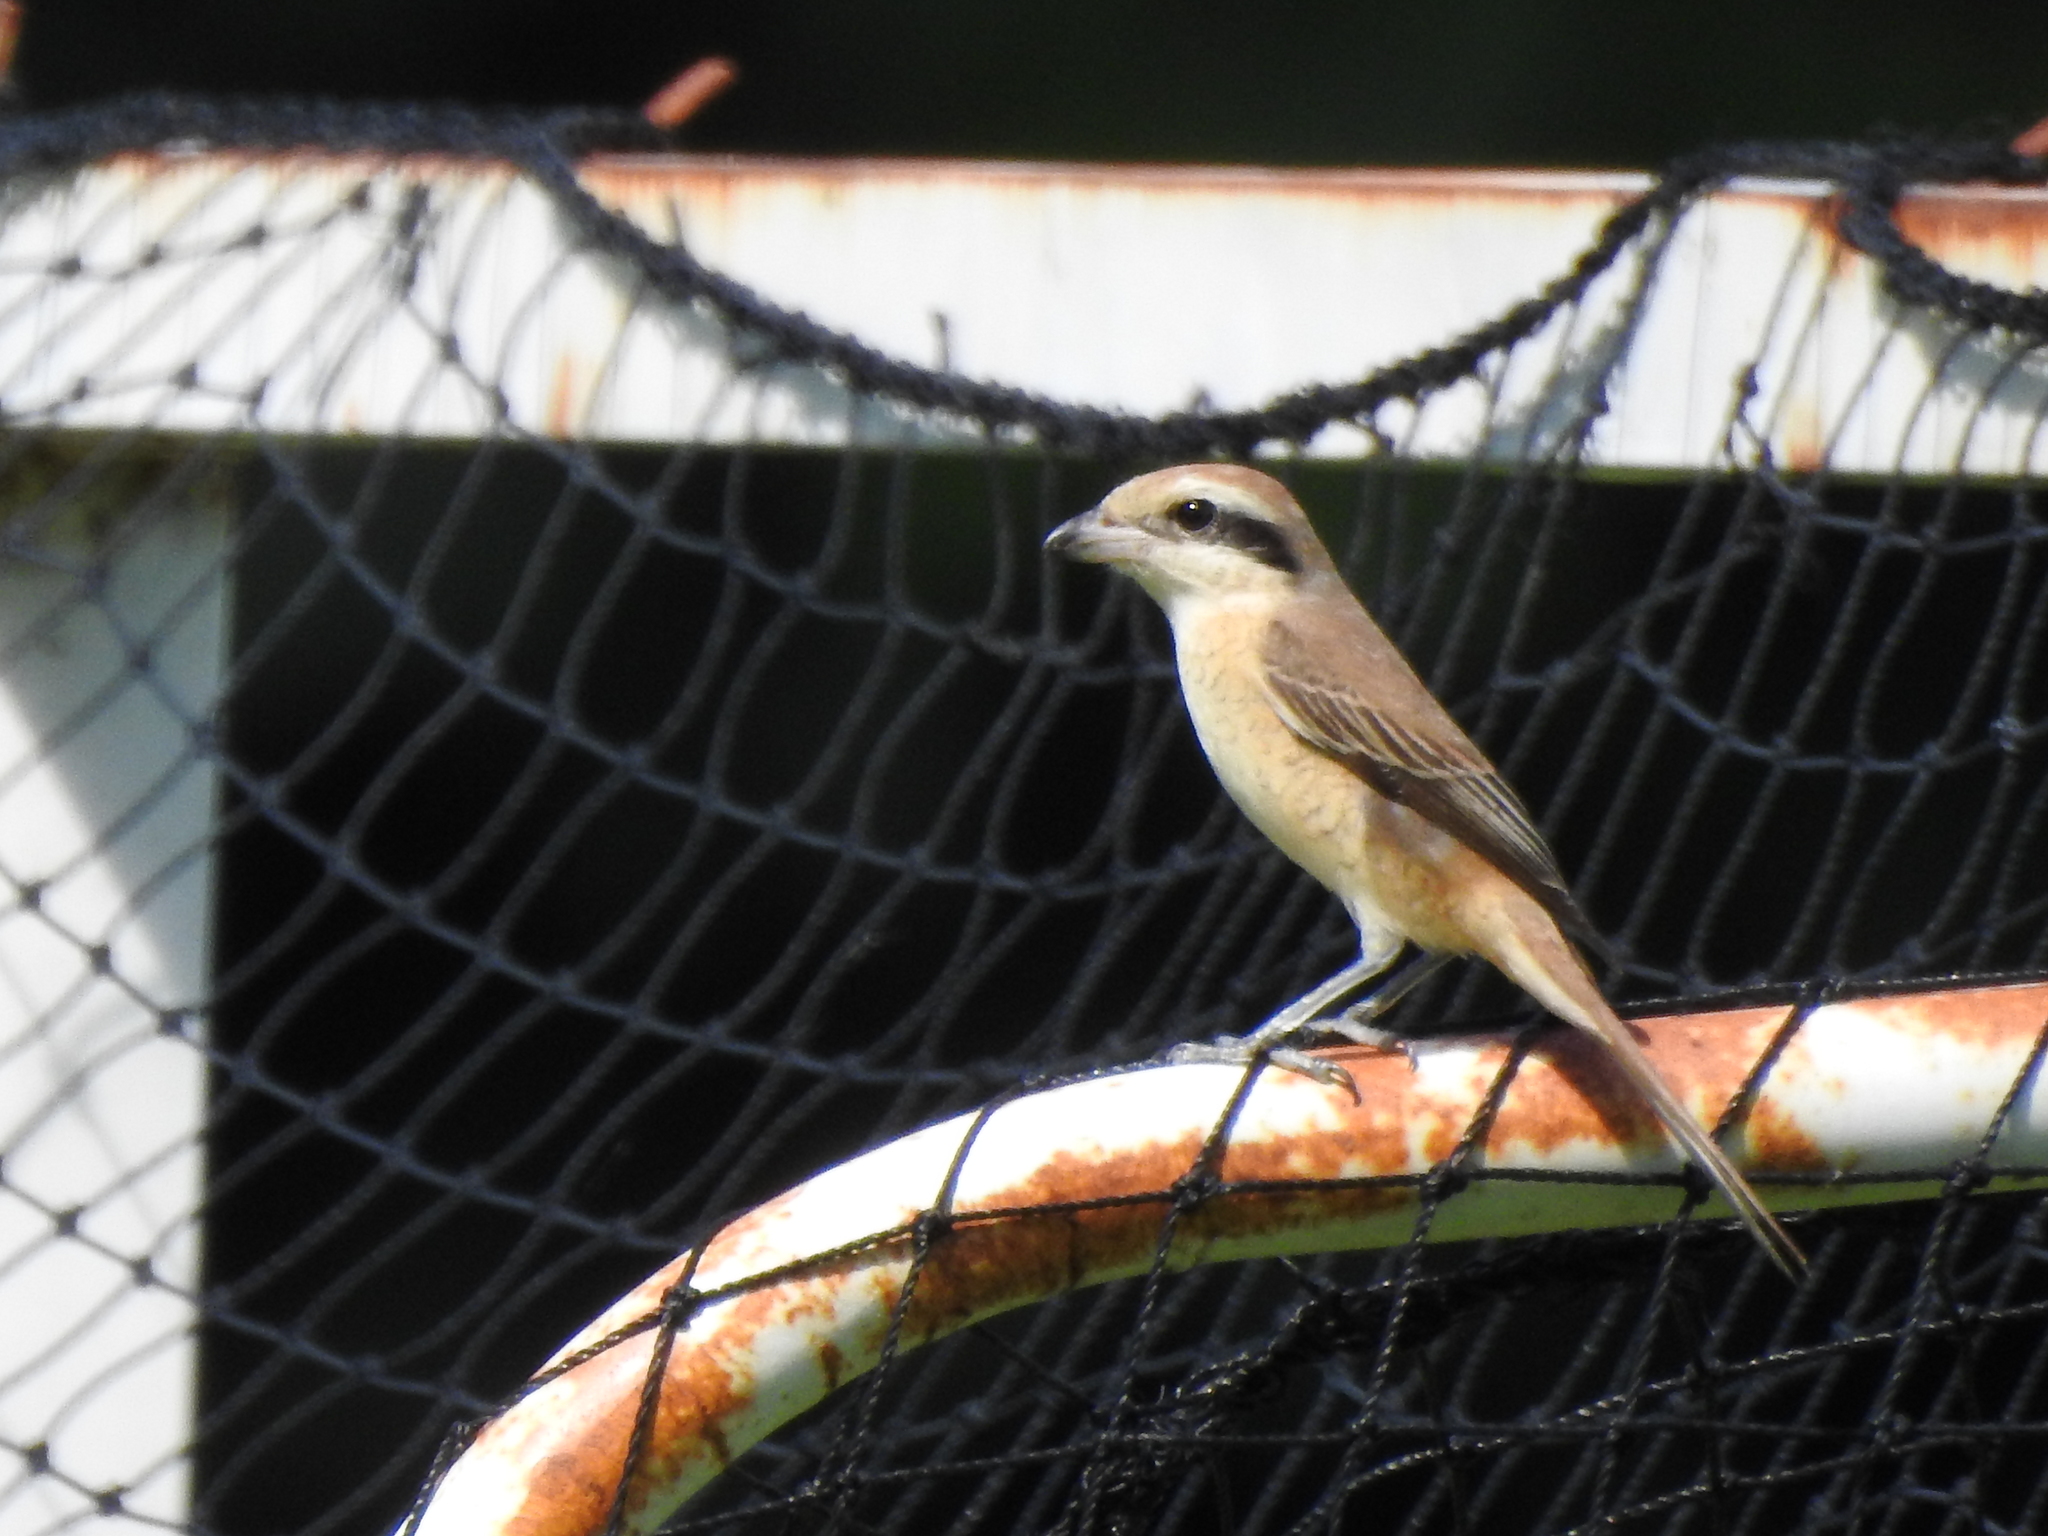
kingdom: Animalia
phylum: Chordata
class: Aves
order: Passeriformes
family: Laniidae
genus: Lanius
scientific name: Lanius cristatus
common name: Brown shrike
